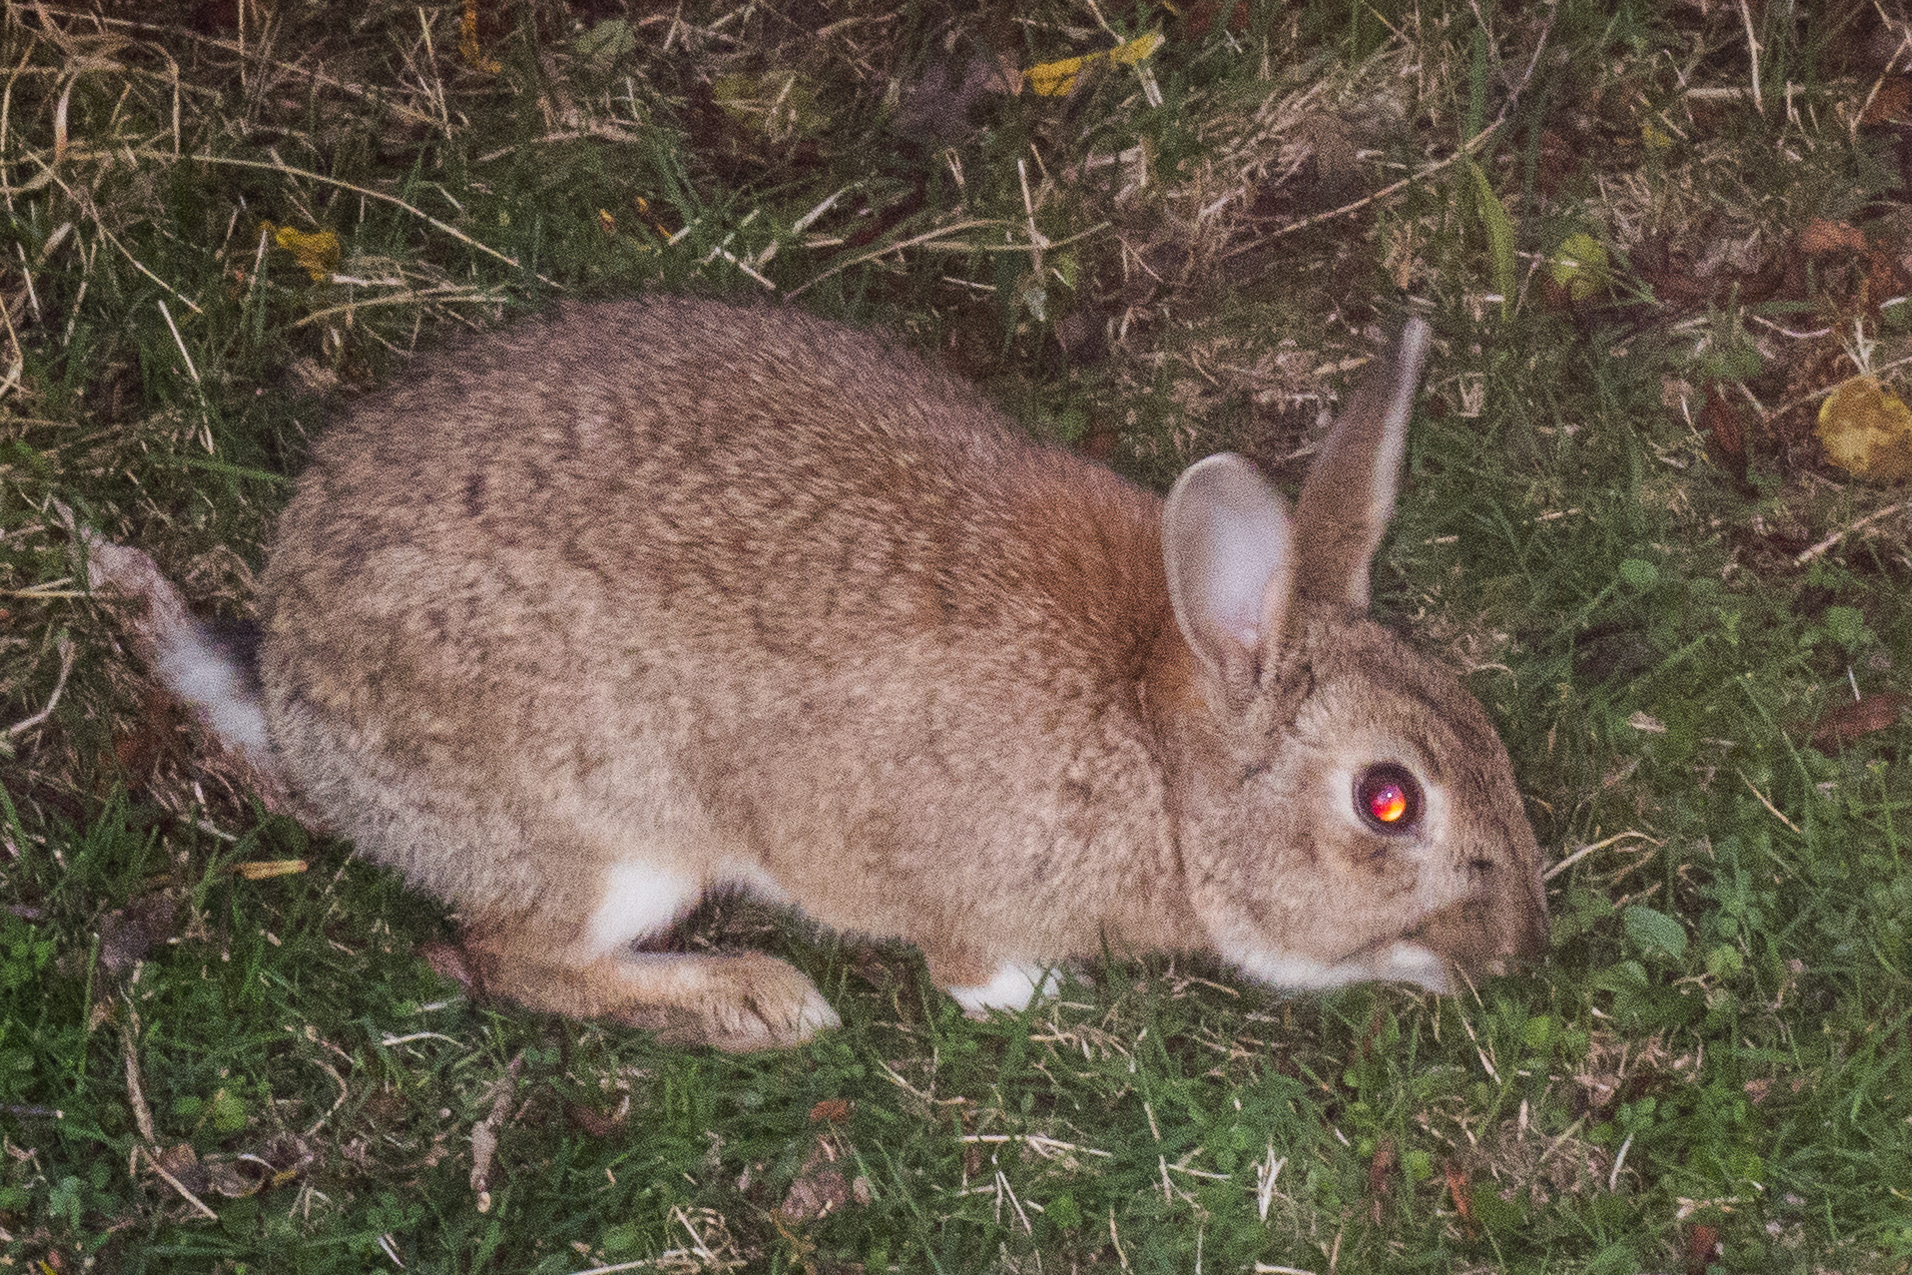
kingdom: Animalia
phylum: Chordata
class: Mammalia
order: Lagomorpha
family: Leporidae
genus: Oryctolagus
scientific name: Oryctolagus cuniculus
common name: European rabbit
